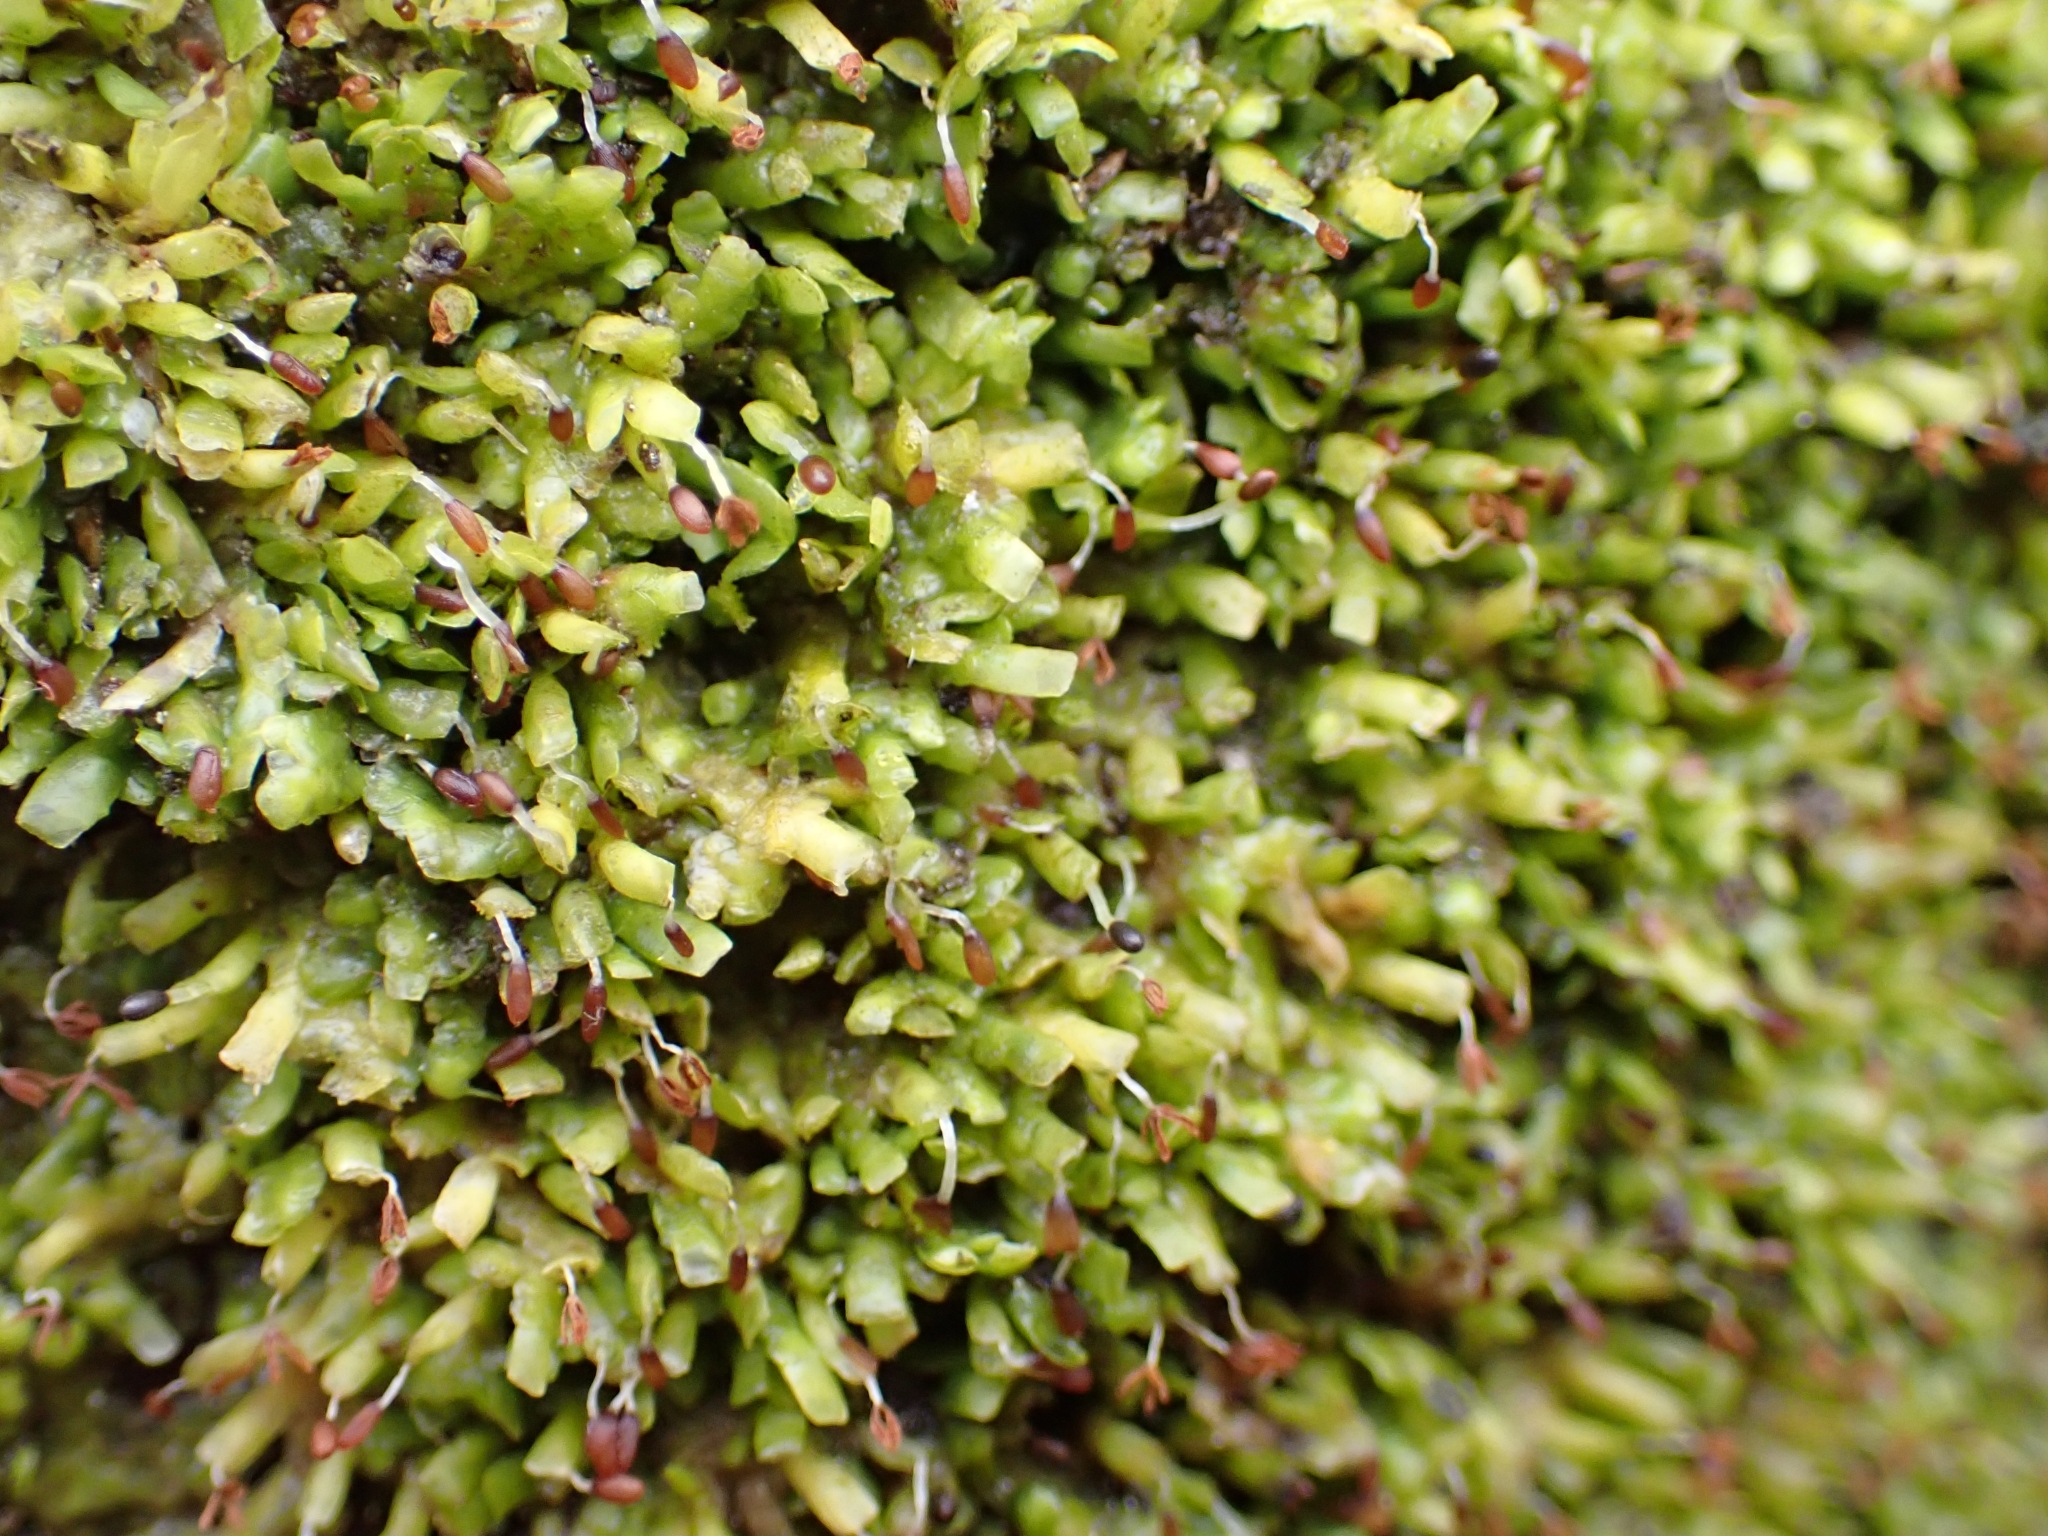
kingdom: Plantae
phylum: Marchantiophyta
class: Jungermanniopsida
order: Porellales
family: Radulaceae
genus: Radula
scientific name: Radula complanata
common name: Flat-leaved scalewort
